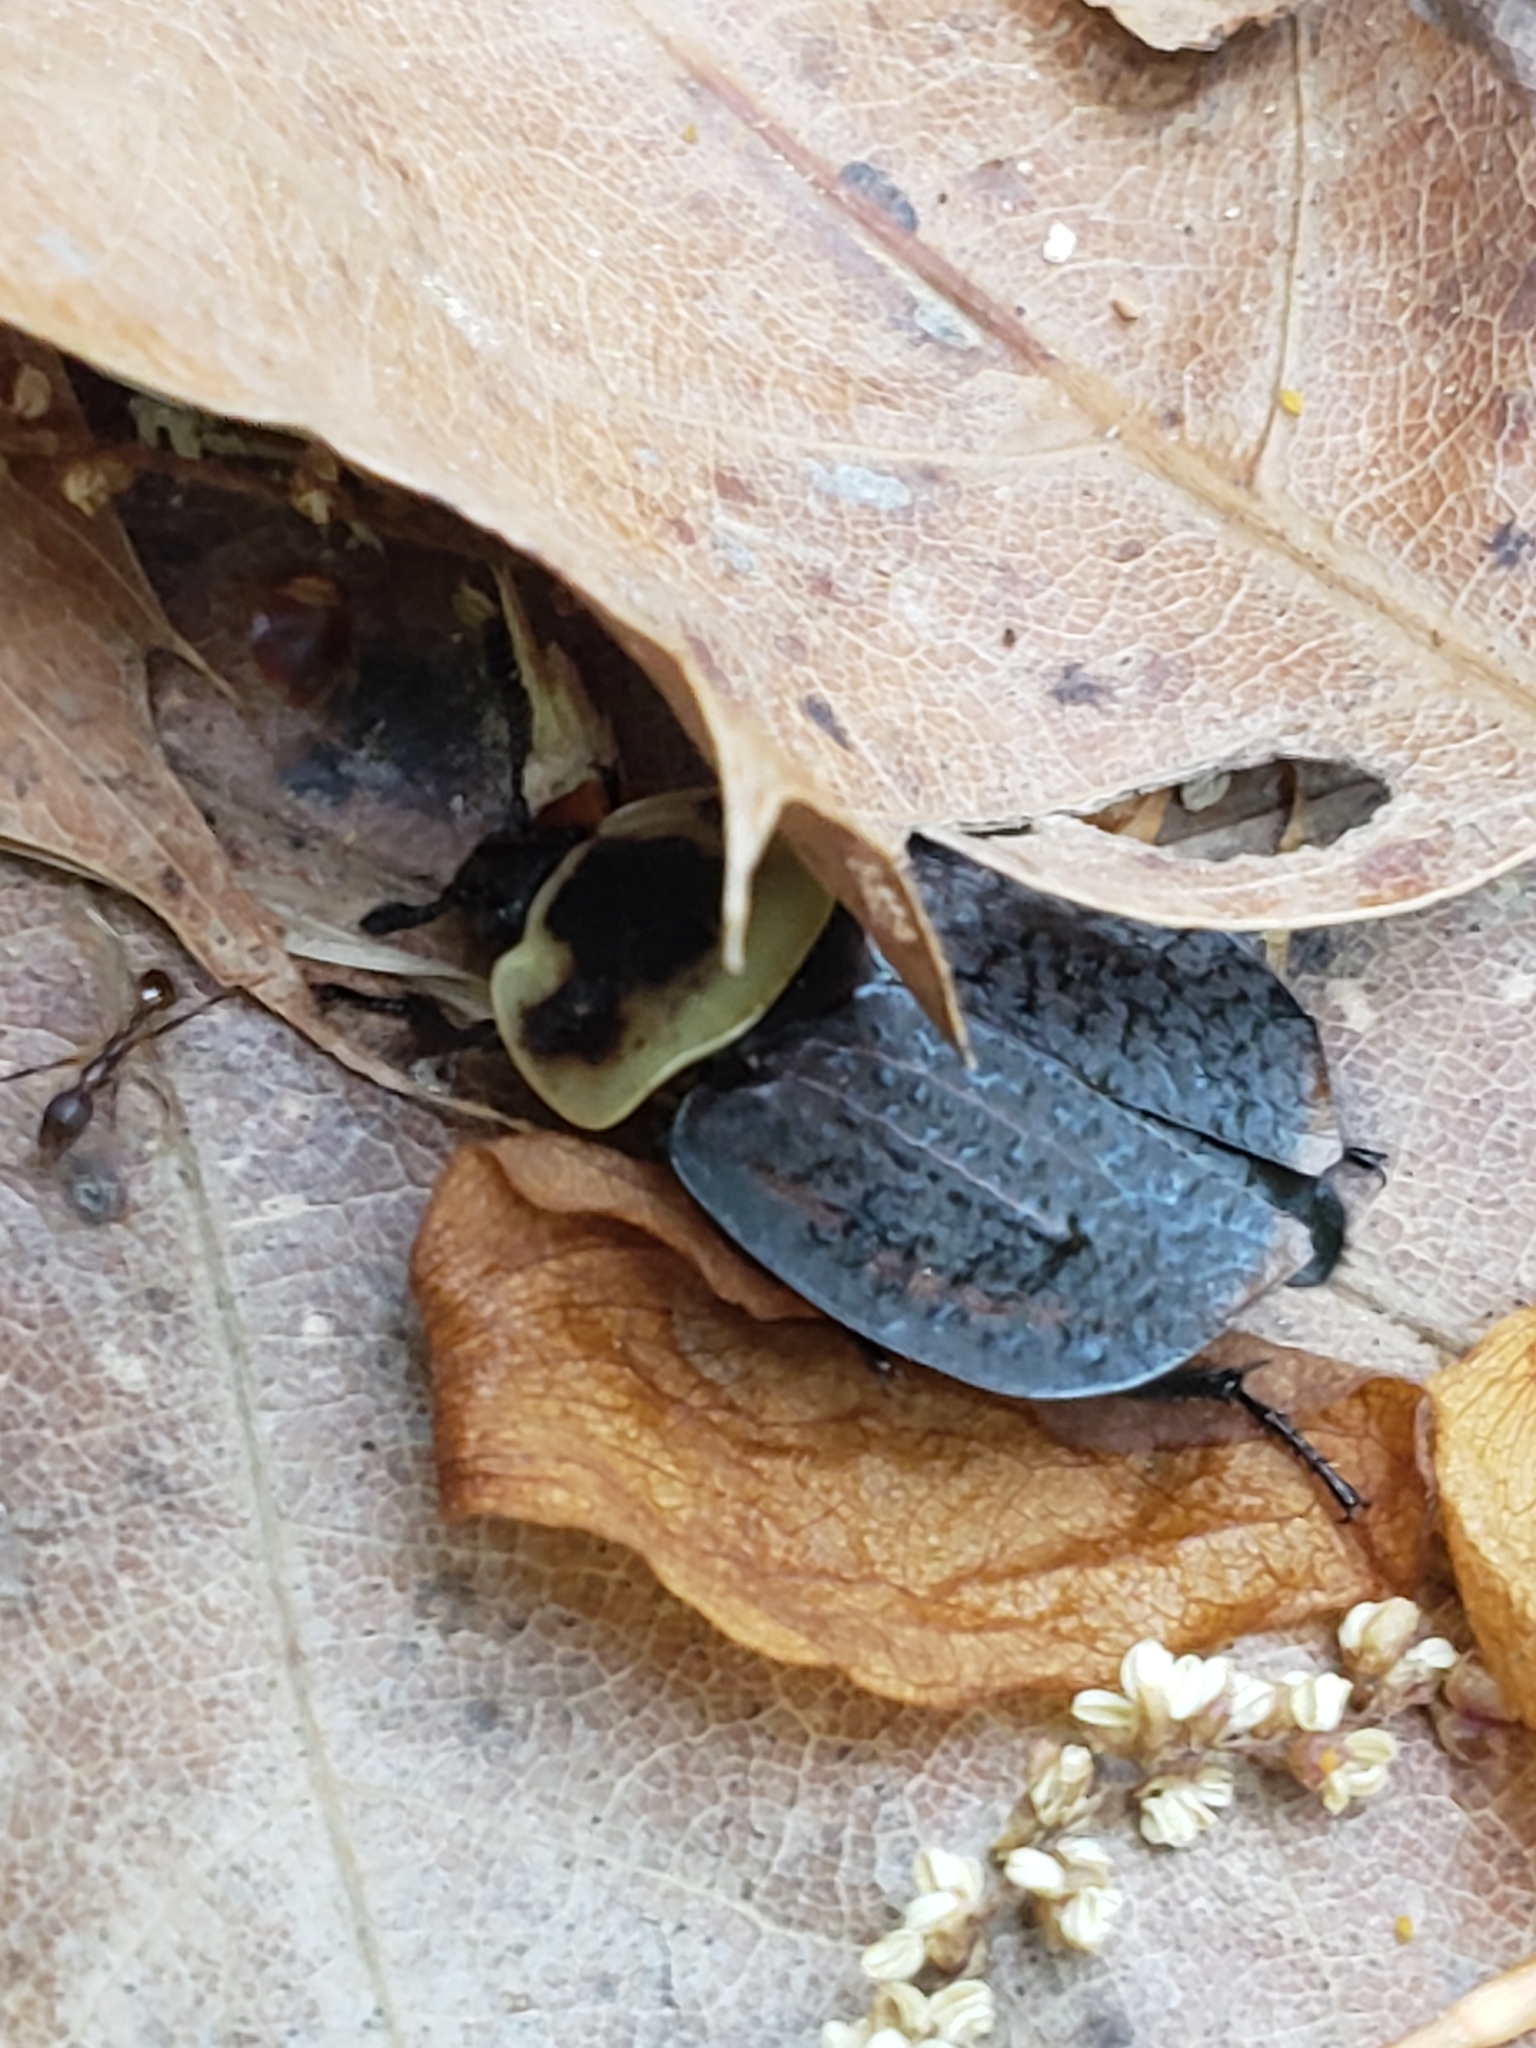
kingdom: Animalia
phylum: Arthropoda
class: Insecta
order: Coleoptera
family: Staphylinidae
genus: Necrophila
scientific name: Necrophila americana
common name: American carrion beetle
